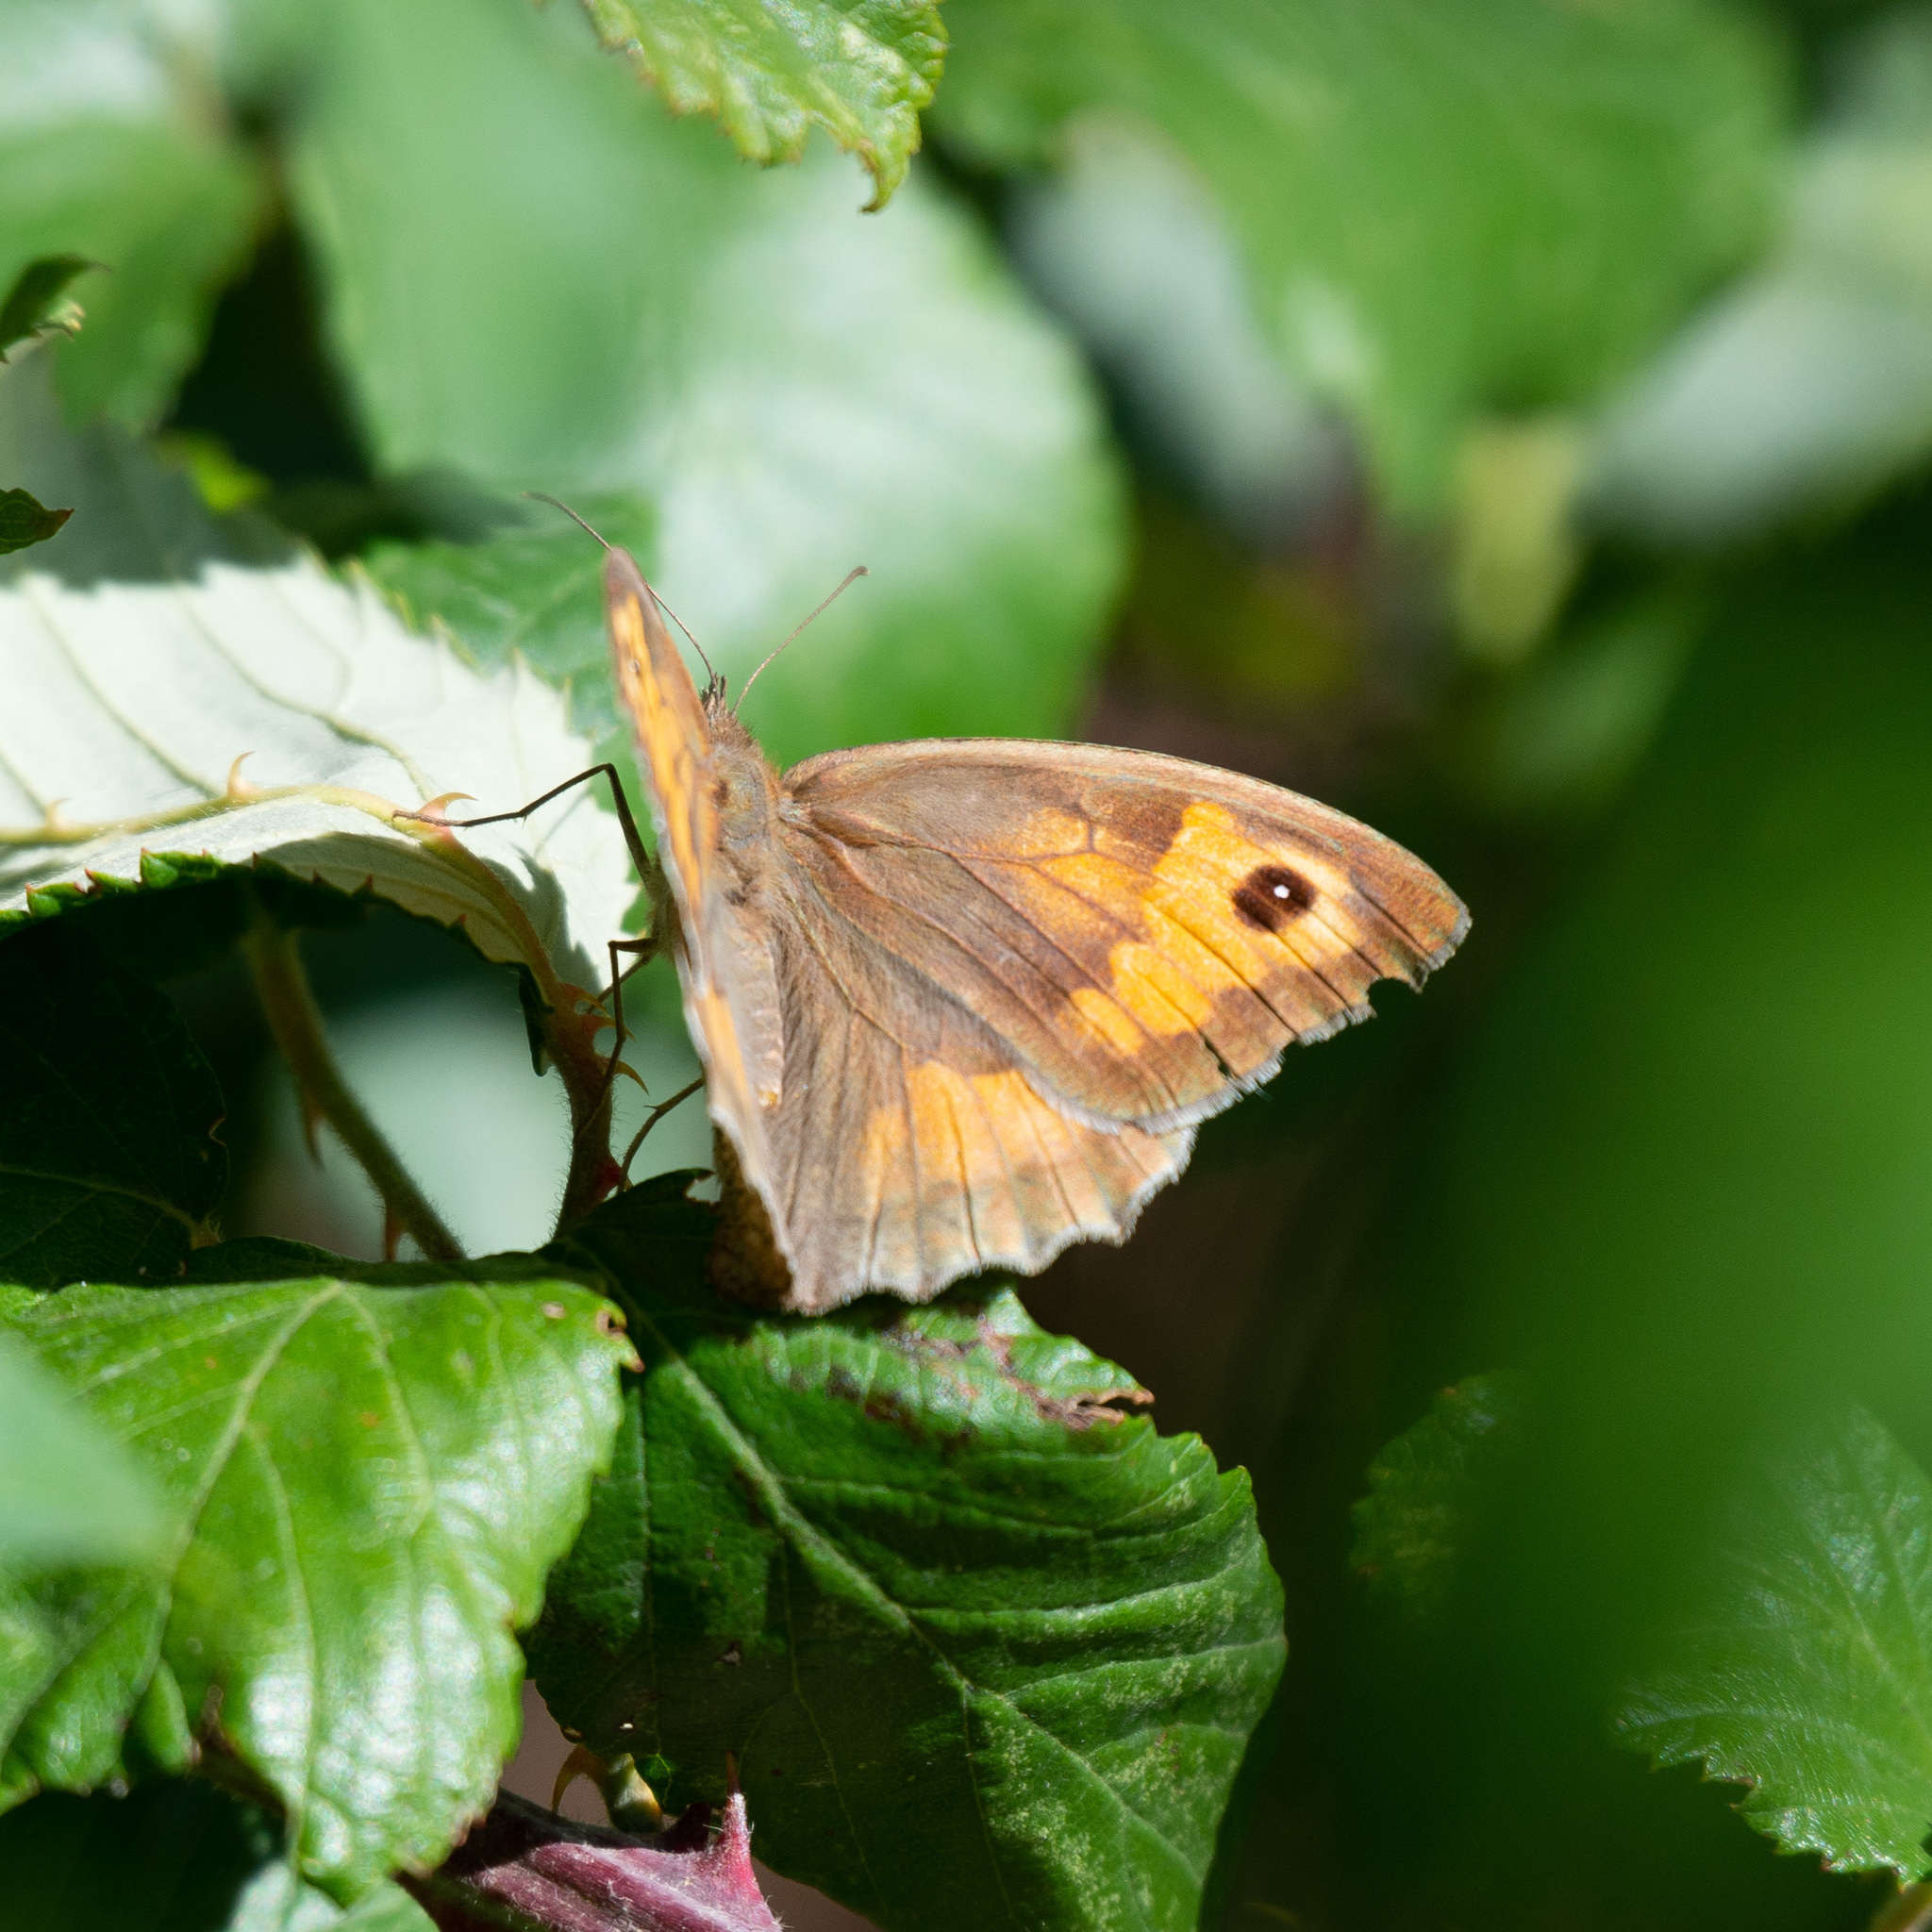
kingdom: Animalia
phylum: Arthropoda
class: Insecta
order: Lepidoptera
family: Nymphalidae
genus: Maniola
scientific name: Maniola jurtina
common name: Meadow brown
